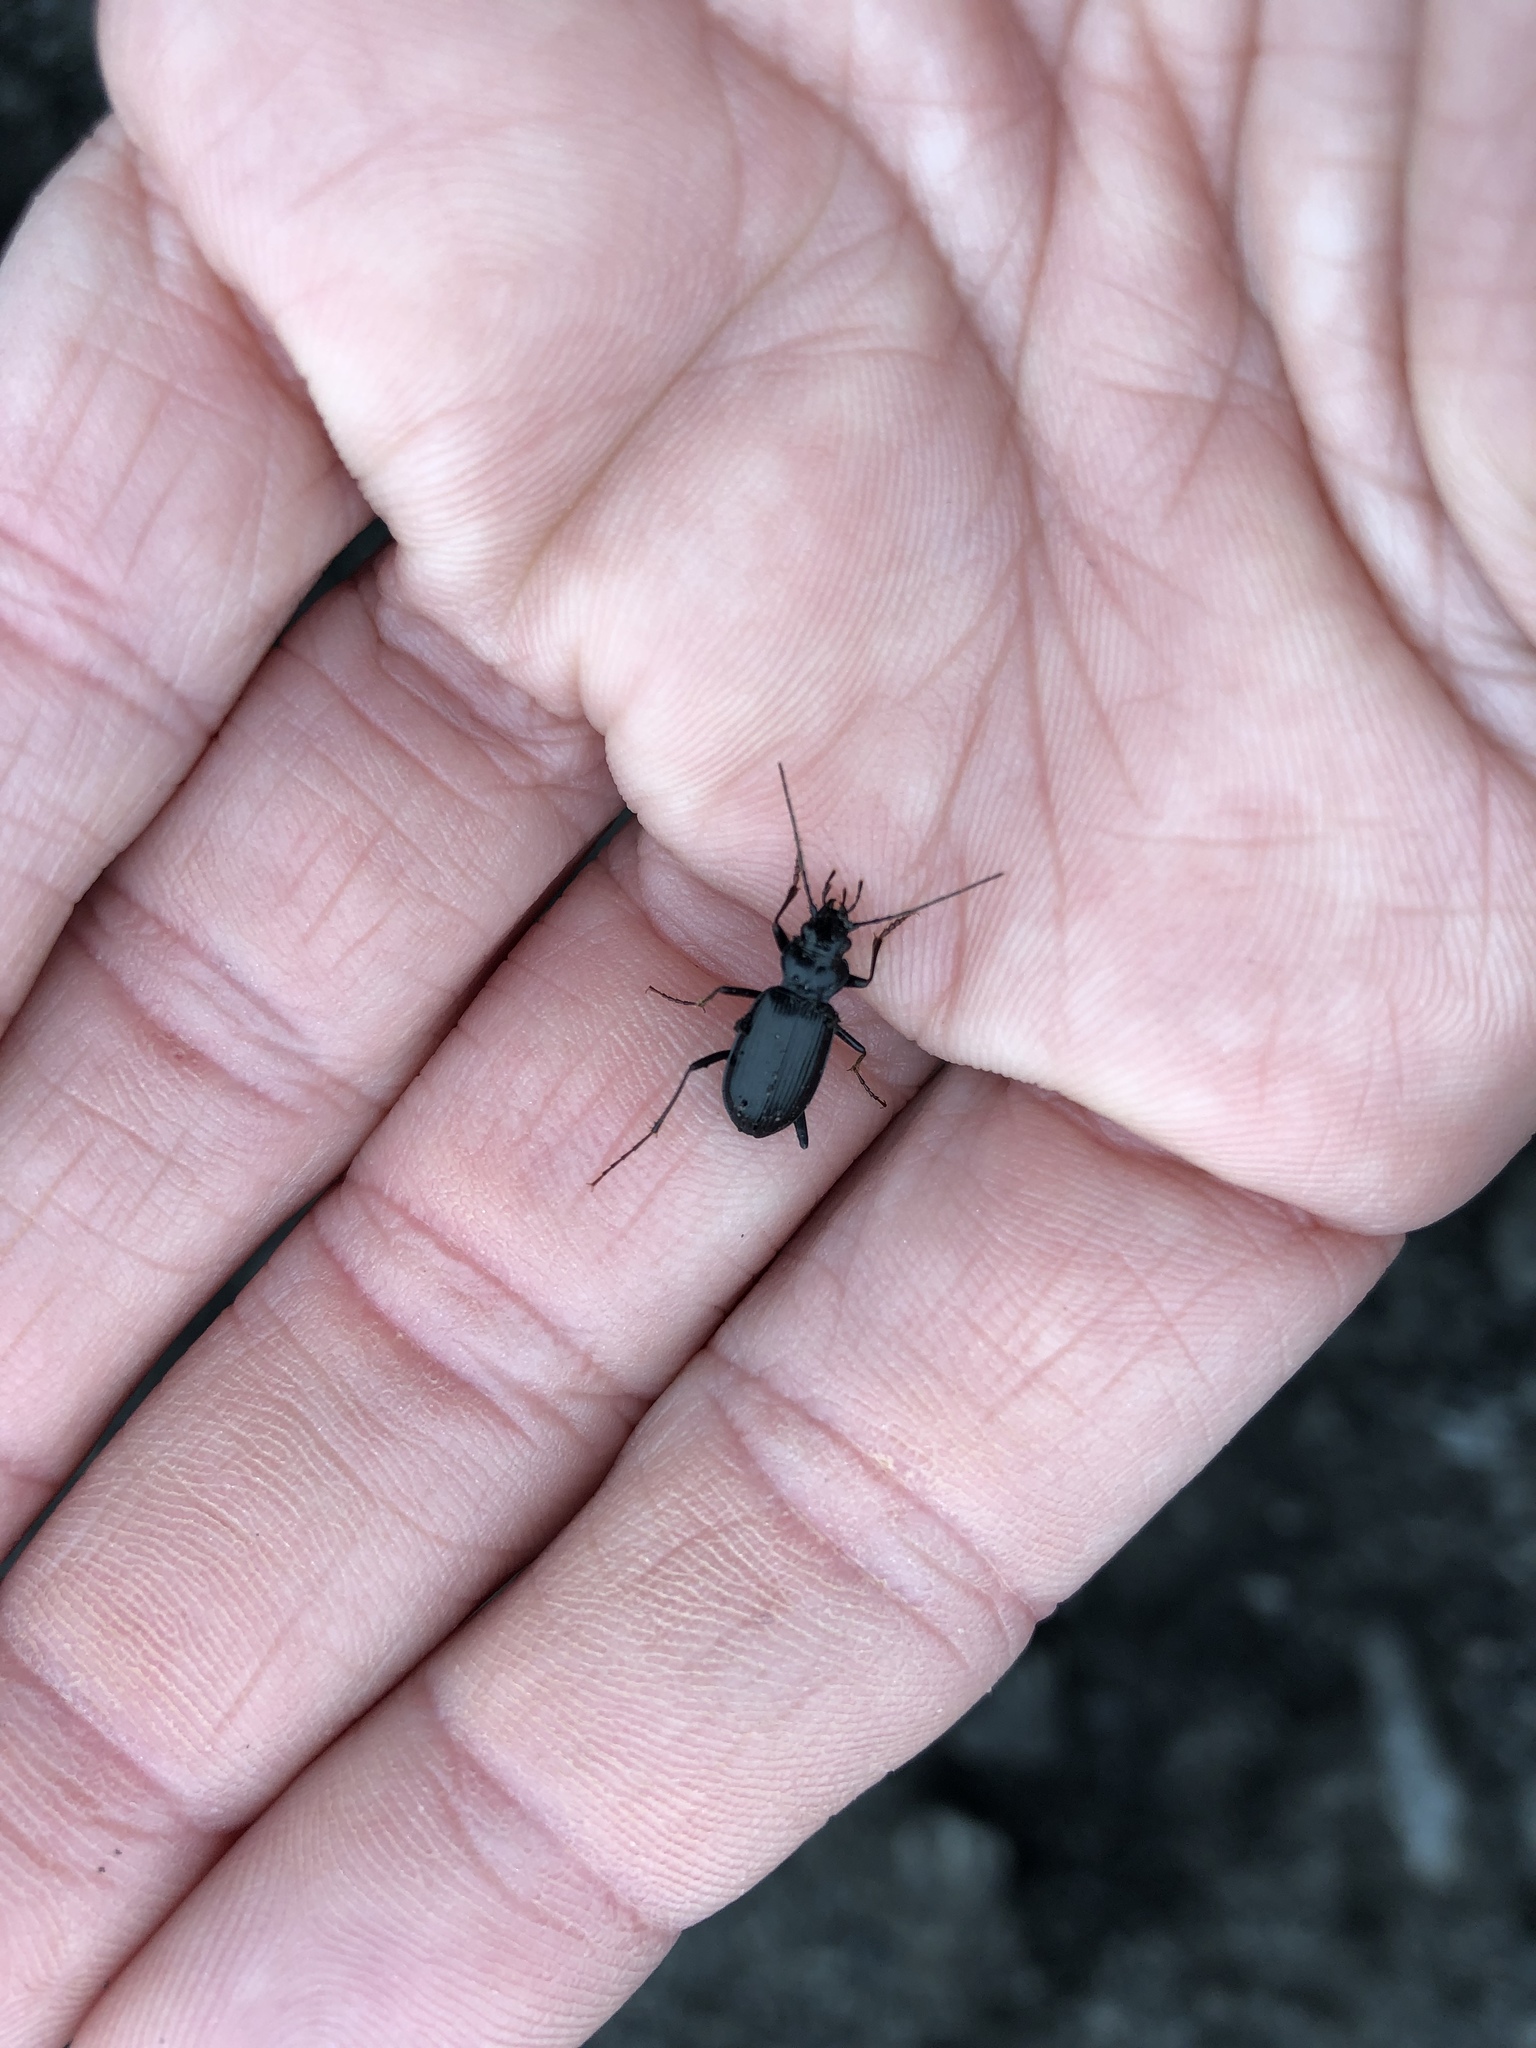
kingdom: Animalia
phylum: Arthropoda
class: Insecta
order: Coleoptera
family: Carabidae
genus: Nebria
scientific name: Nebria rufescens
